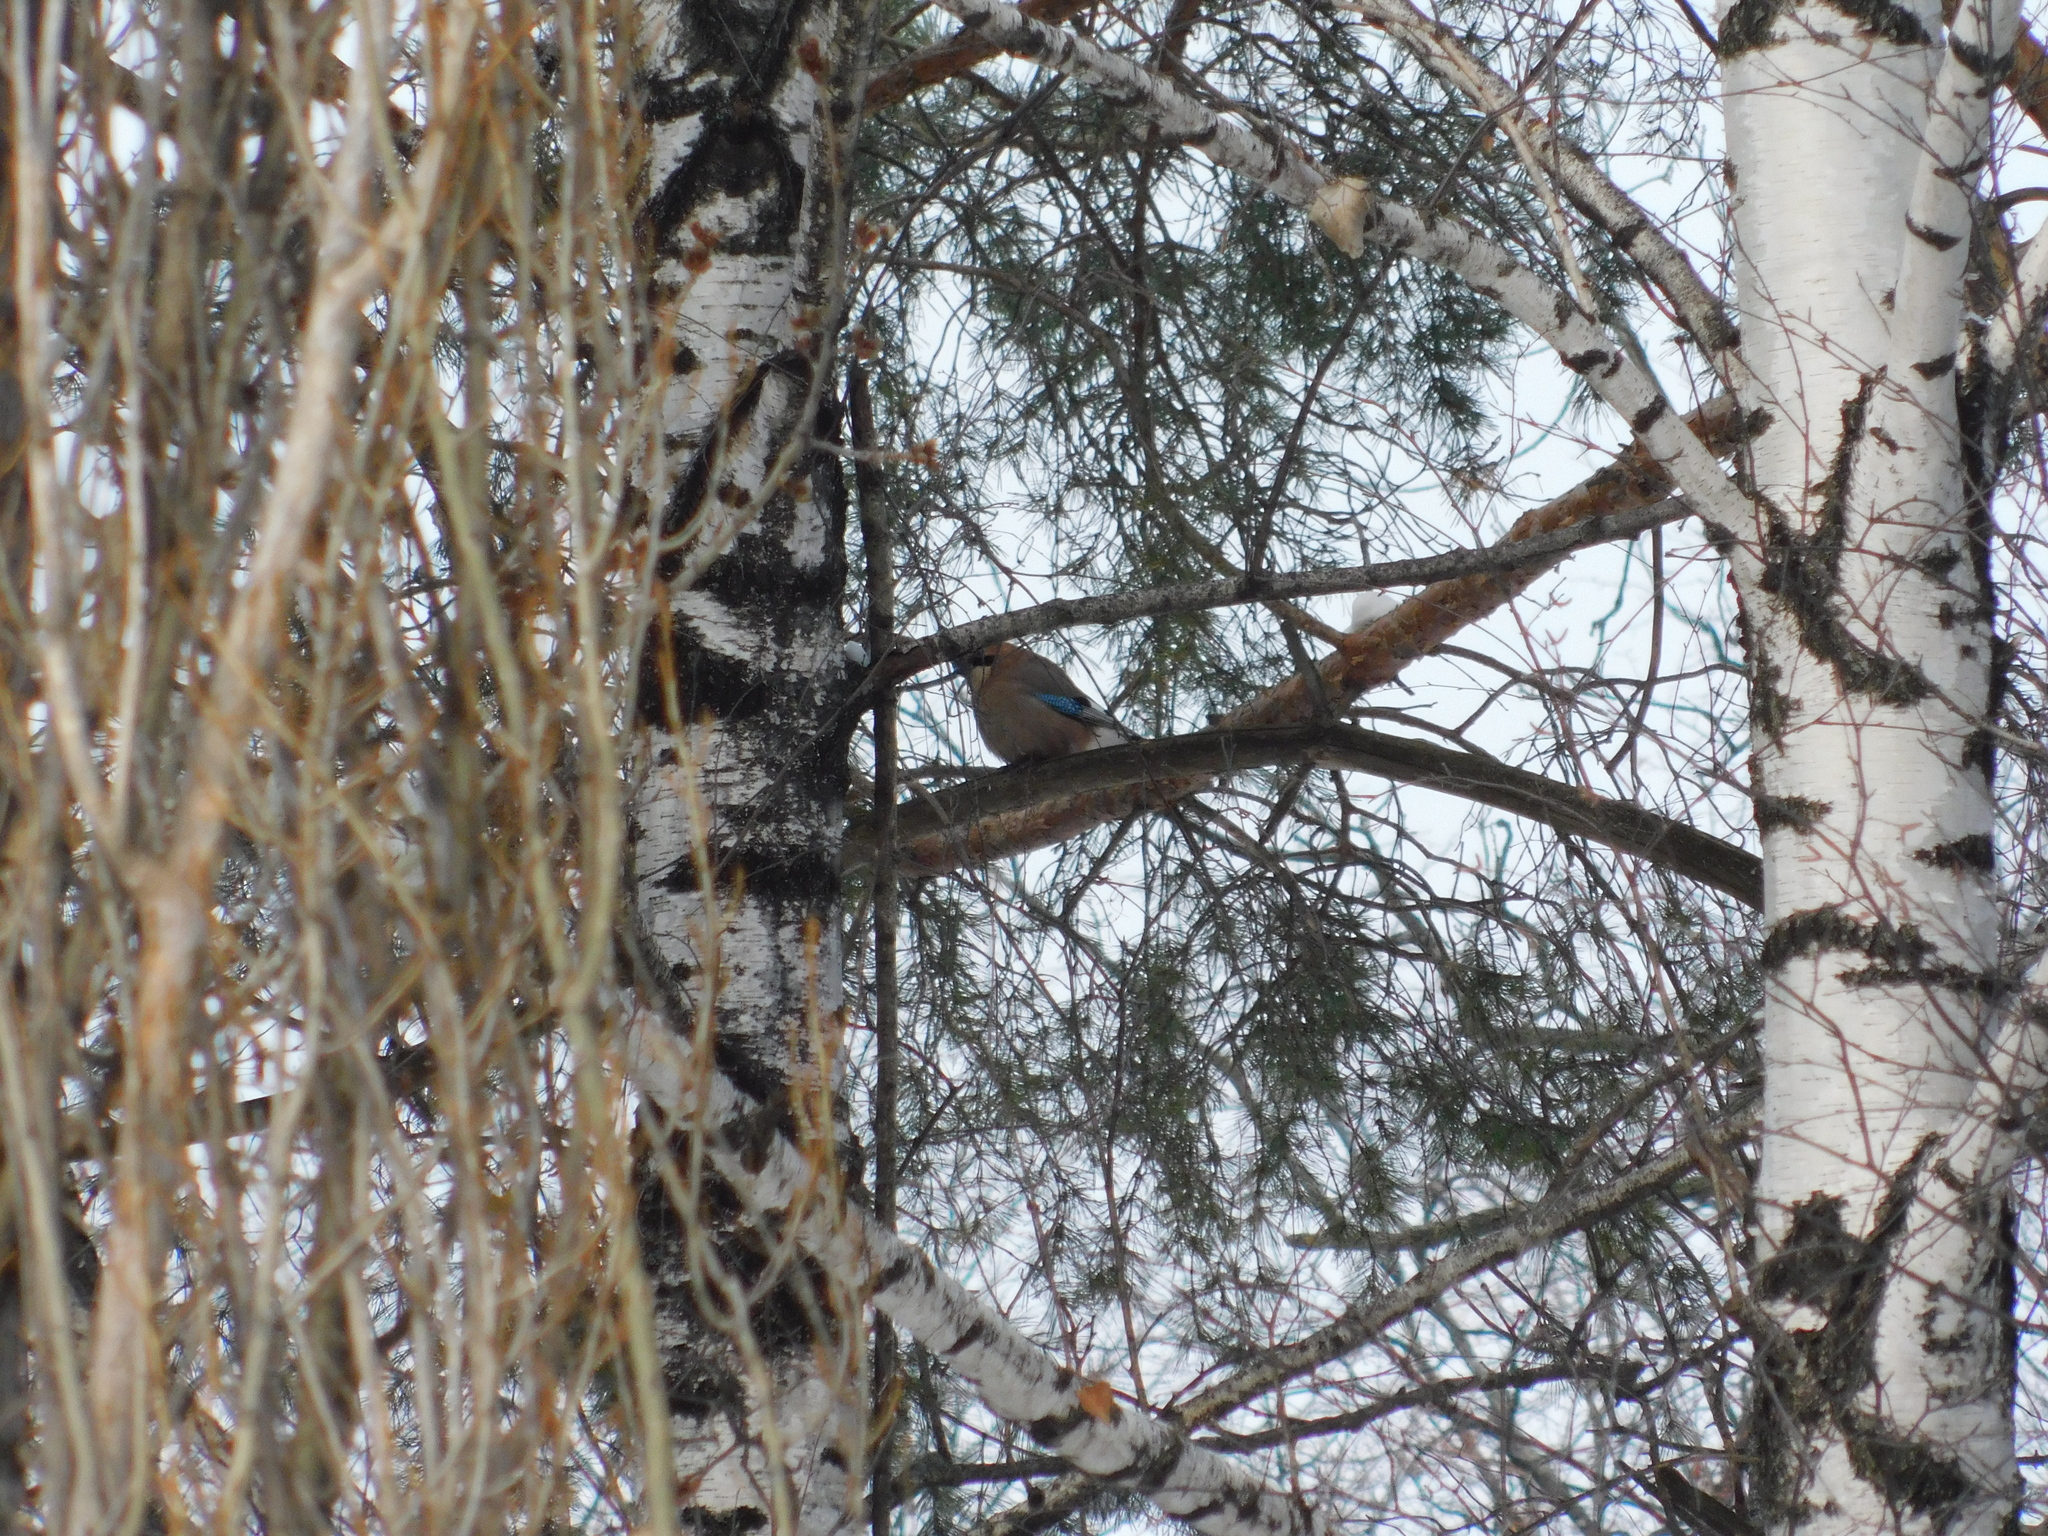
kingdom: Animalia
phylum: Chordata
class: Aves
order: Passeriformes
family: Corvidae
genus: Garrulus
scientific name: Garrulus glandarius
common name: Eurasian jay
